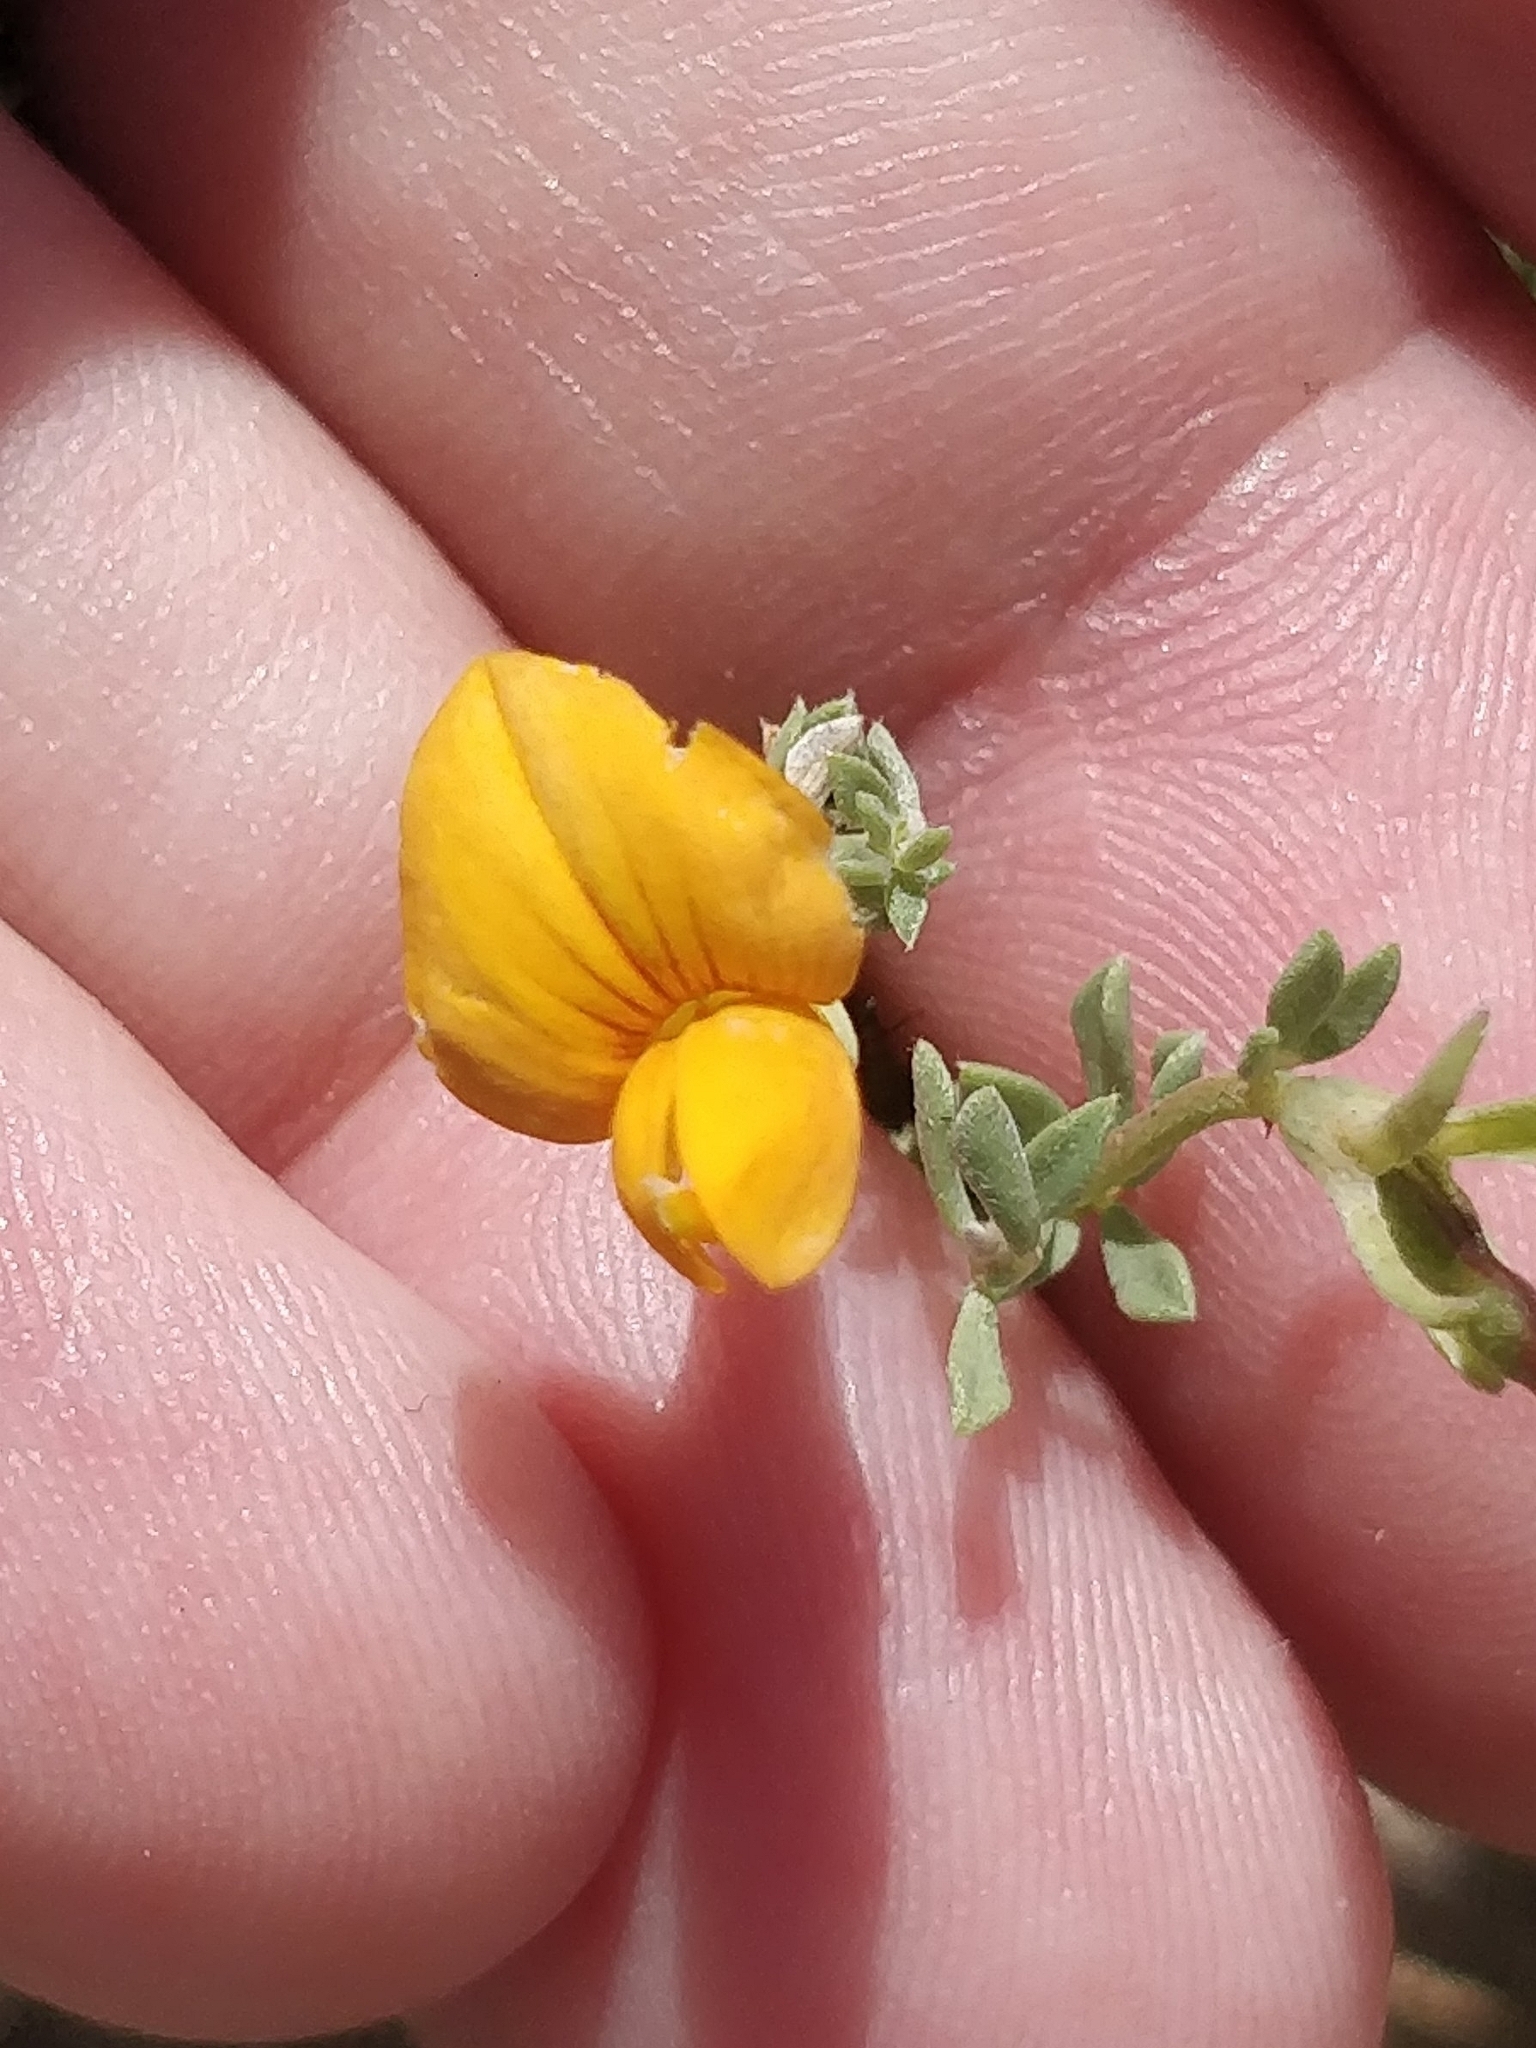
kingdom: Plantae
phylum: Tracheophyta
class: Magnoliopsida
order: Fabales
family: Fabaceae
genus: Lotus
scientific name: Lotus glaucus
